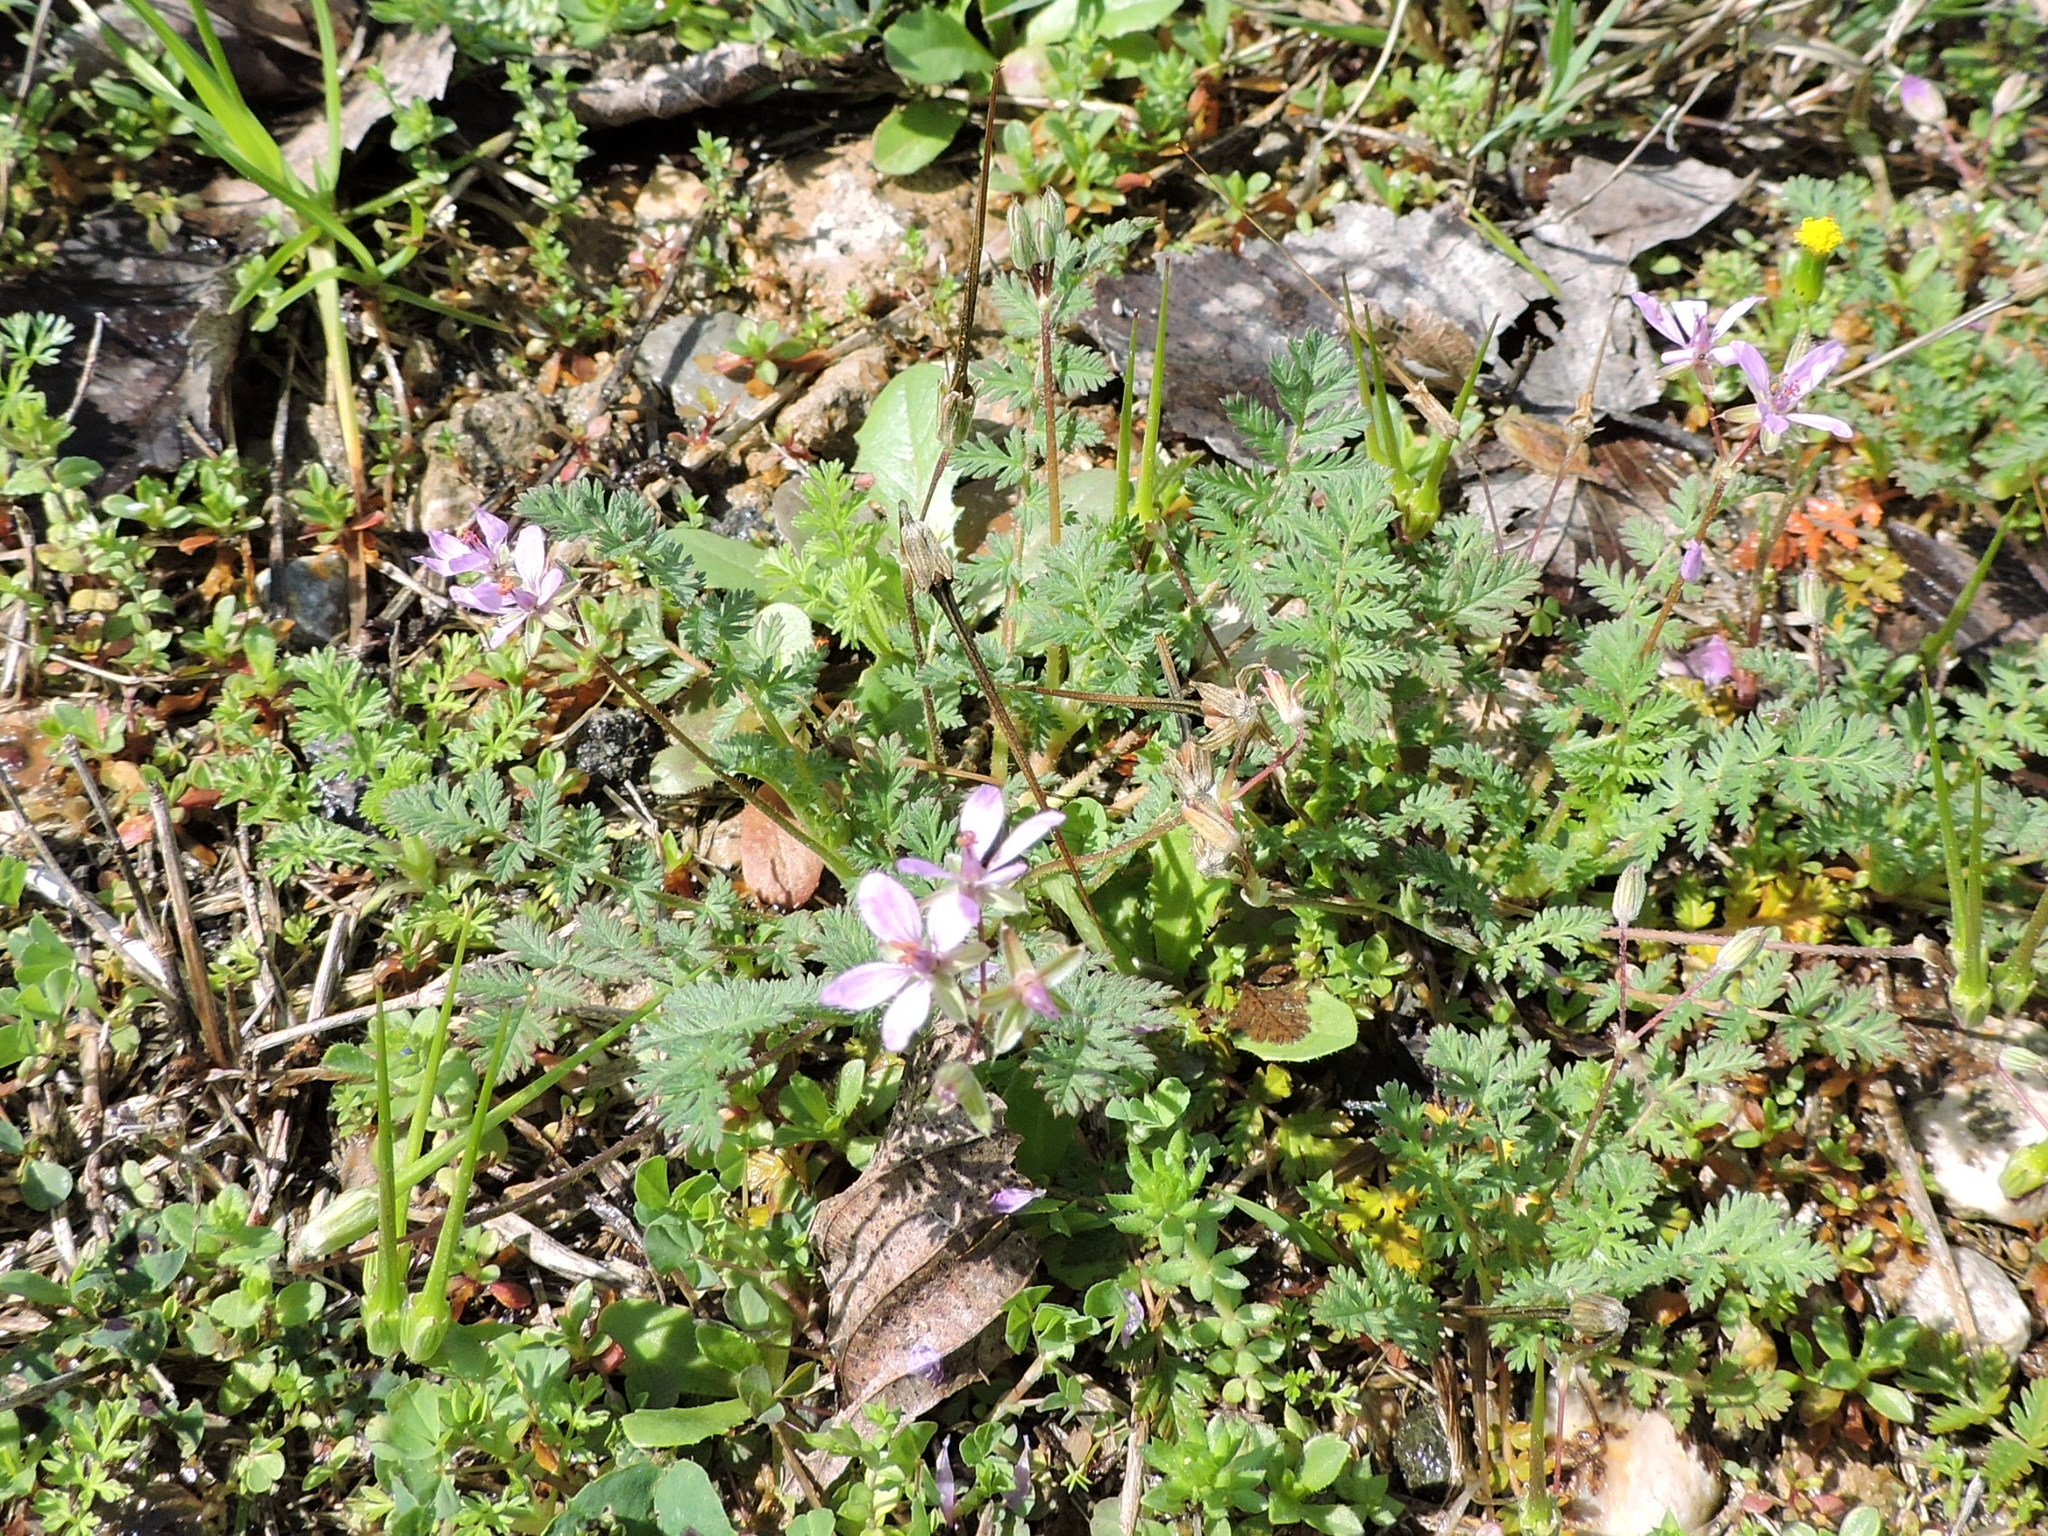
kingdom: Plantae
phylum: Tracheophyta
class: Magnoliopsida
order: Geraniales
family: Geraniaceae
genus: Erodium
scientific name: Erodium cicutarium
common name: Common stork's-bill
